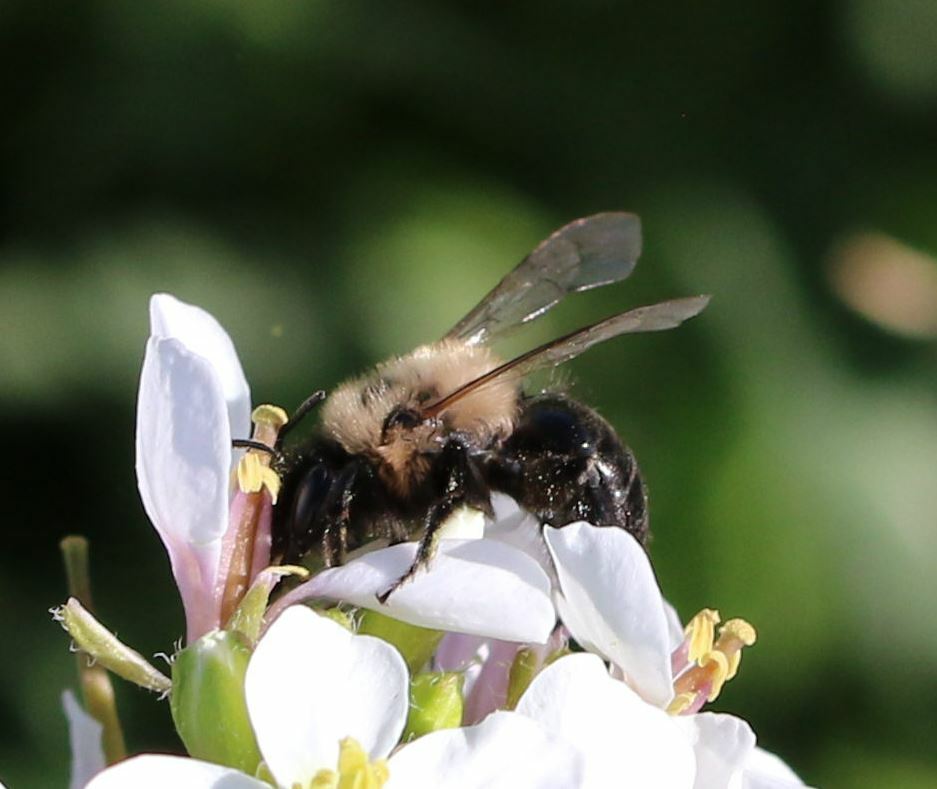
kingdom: Animalia
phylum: Arthropoda
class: Insecta
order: Hymenoptera
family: Andrenidae
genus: Andrena
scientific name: Andrena bicolorata
